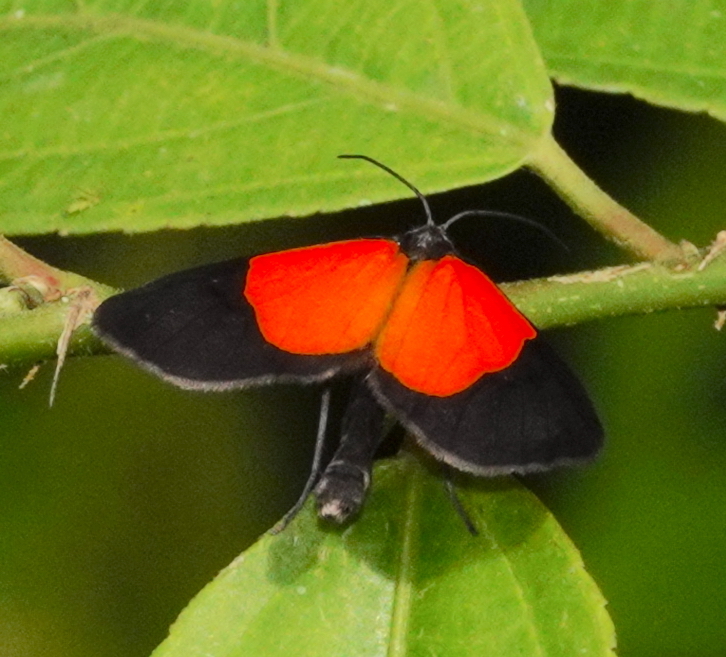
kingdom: Animalia
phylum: Arthropoda
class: Insecta
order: Lepidoptera
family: Geometridae
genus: Eudule
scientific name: Eudule fidentia
